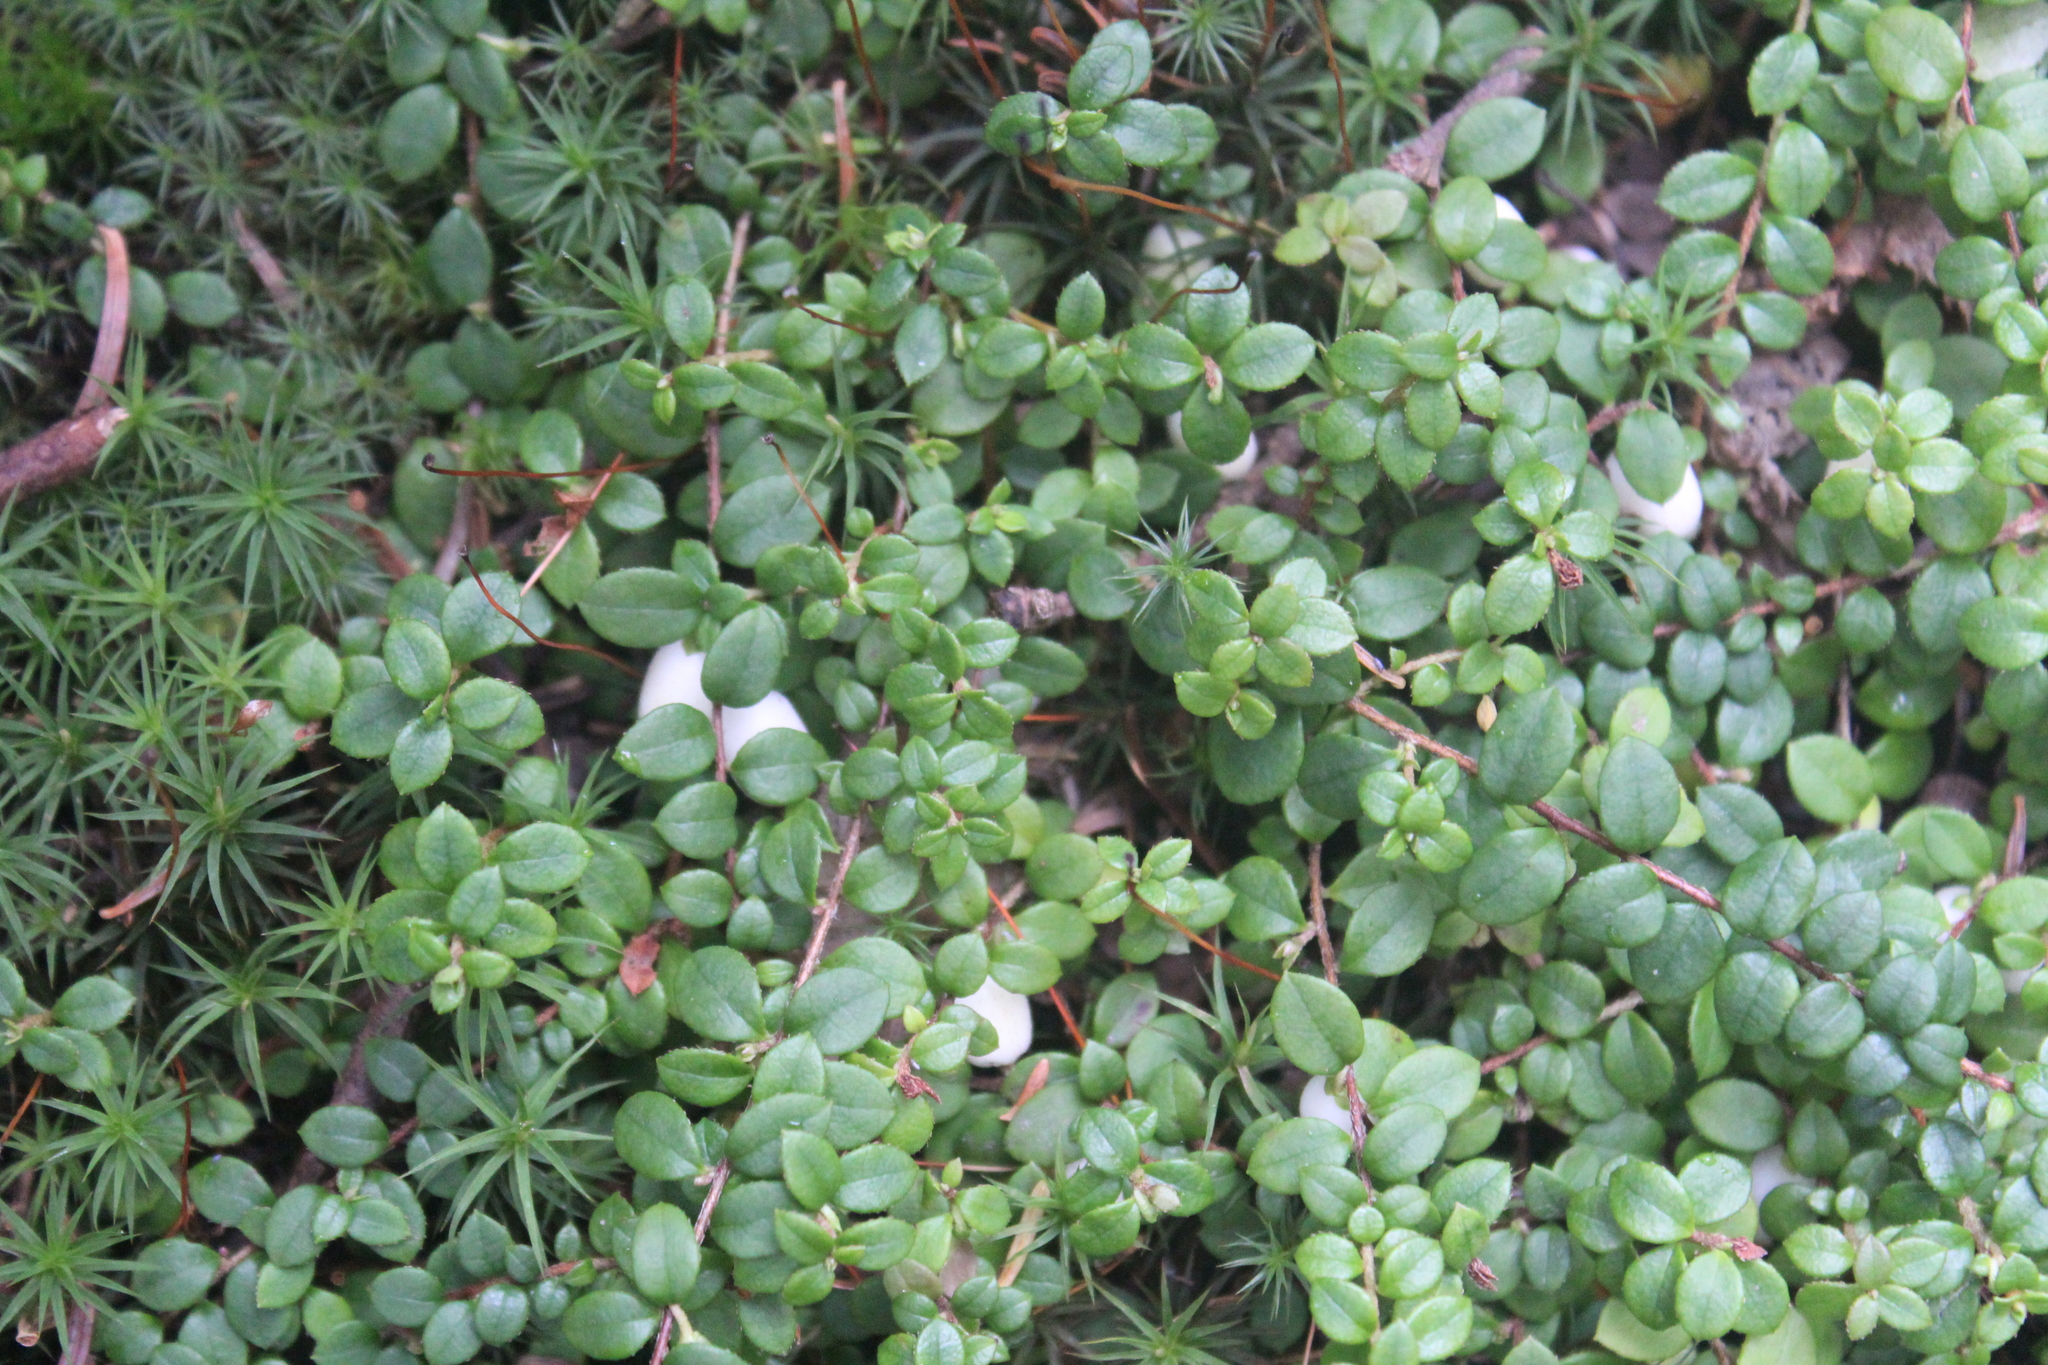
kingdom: Plantae
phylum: Tracheophyta
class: Magnoliopsida
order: Ericales
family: Ericaceae
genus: Gaultheria
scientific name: Gaultheria hispidula
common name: Cancer wintergreen
